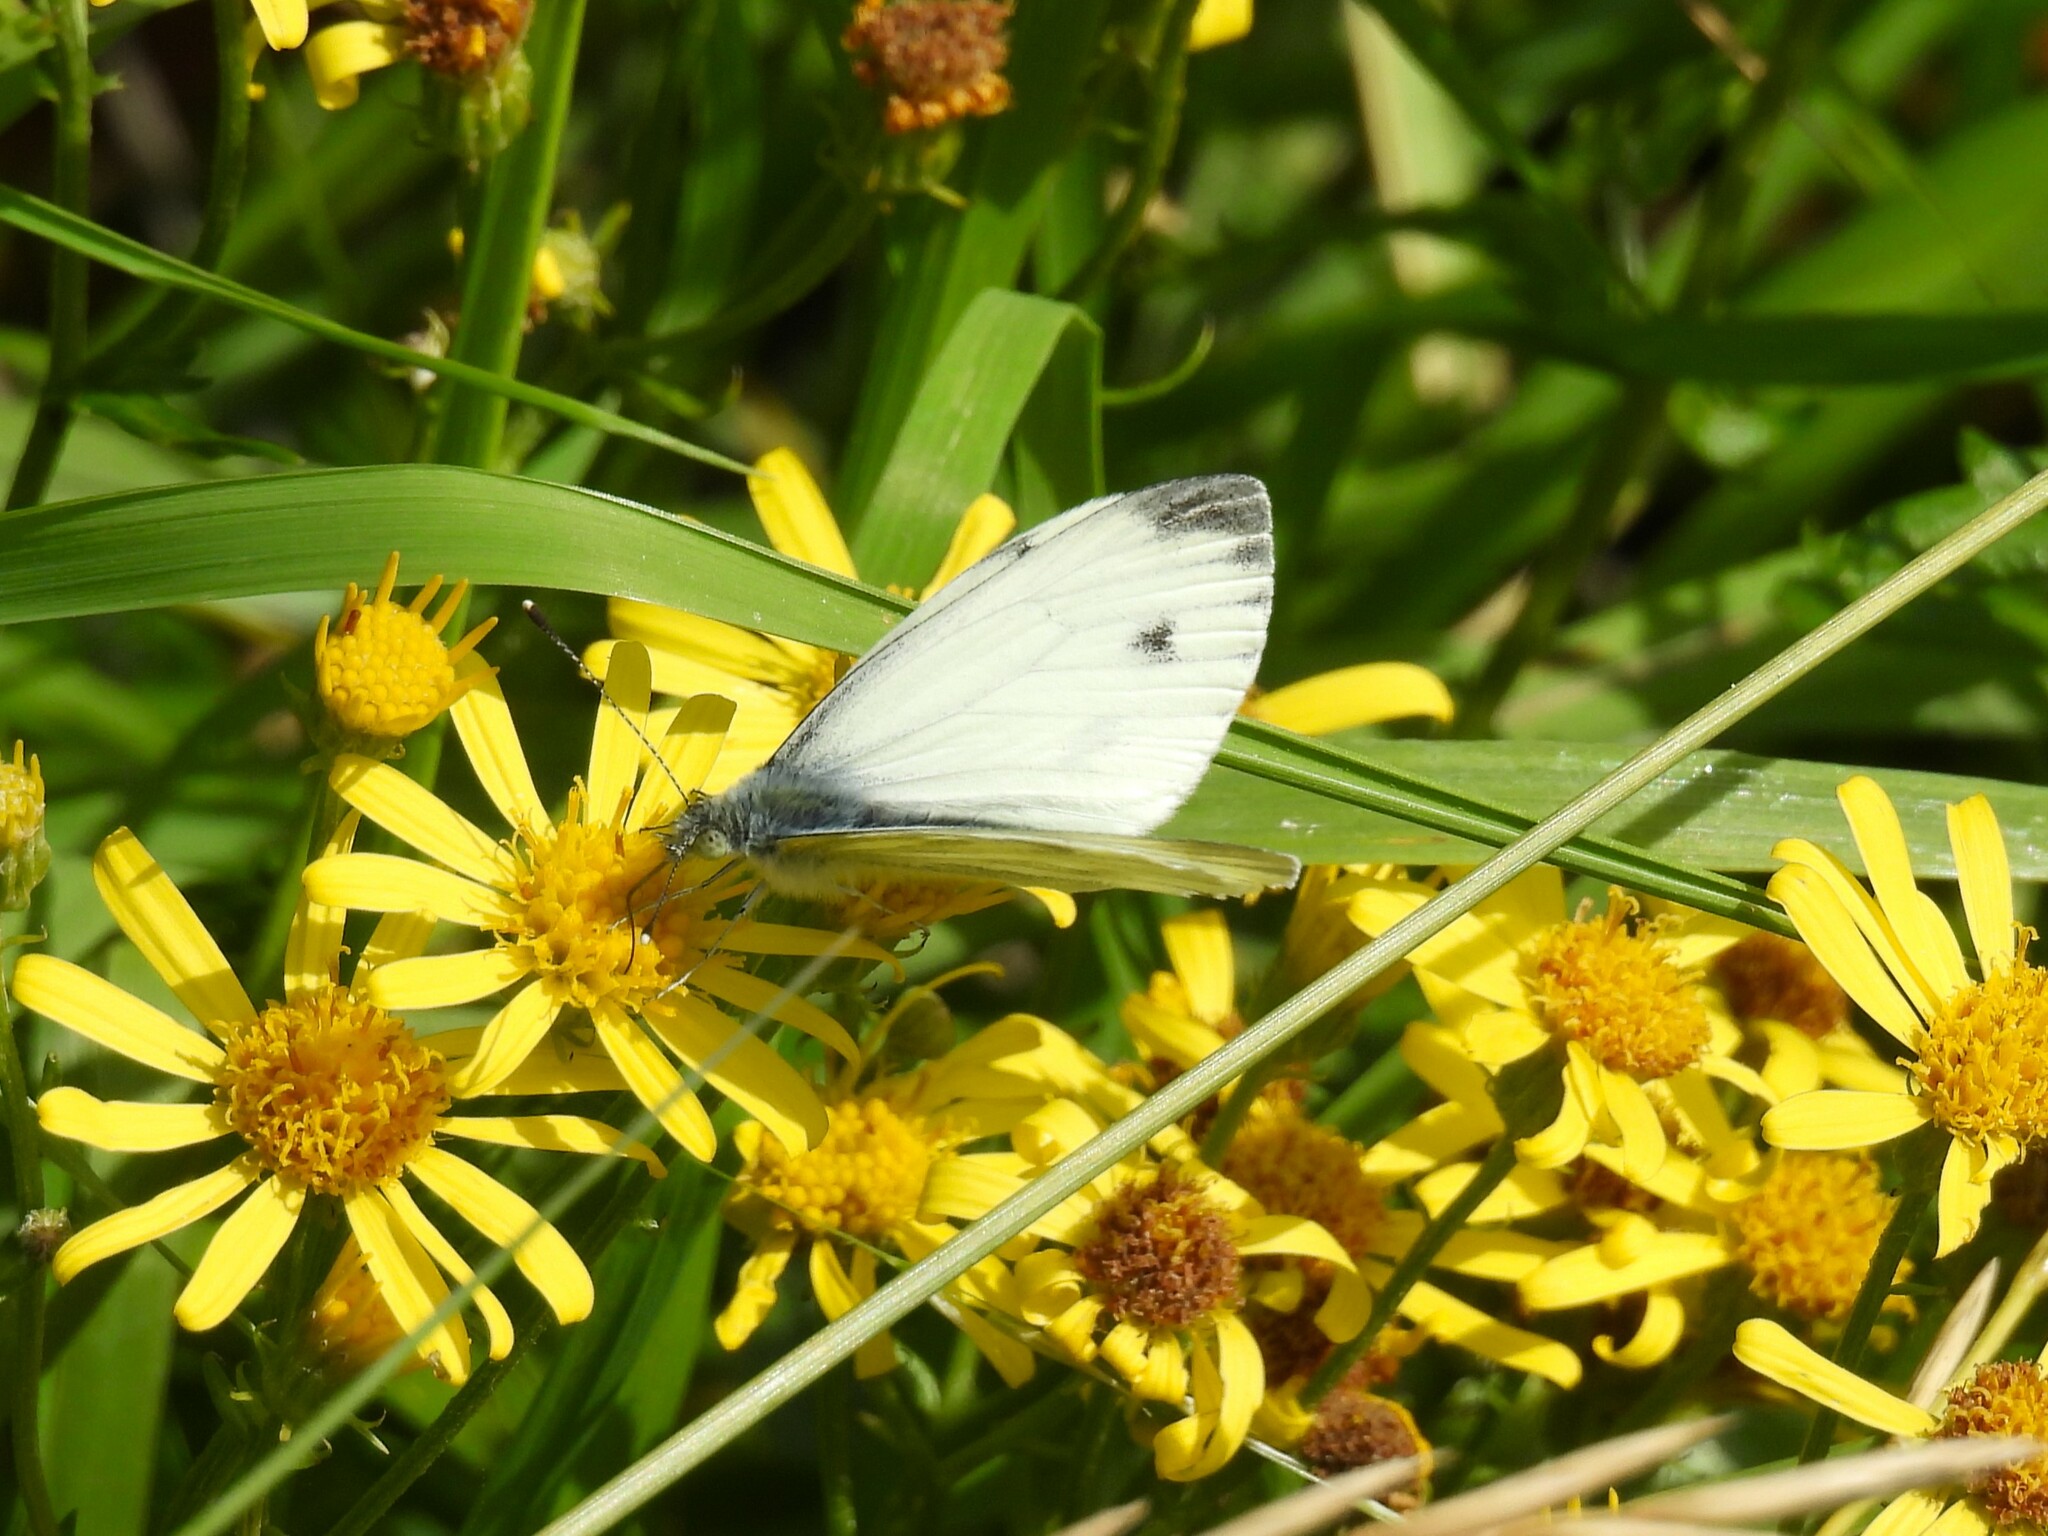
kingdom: Animalia
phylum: Arthropoda
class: Insecta
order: Lepidoptera
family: Pieridae
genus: Pieris
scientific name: Pieris napi
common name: Green-veined white
